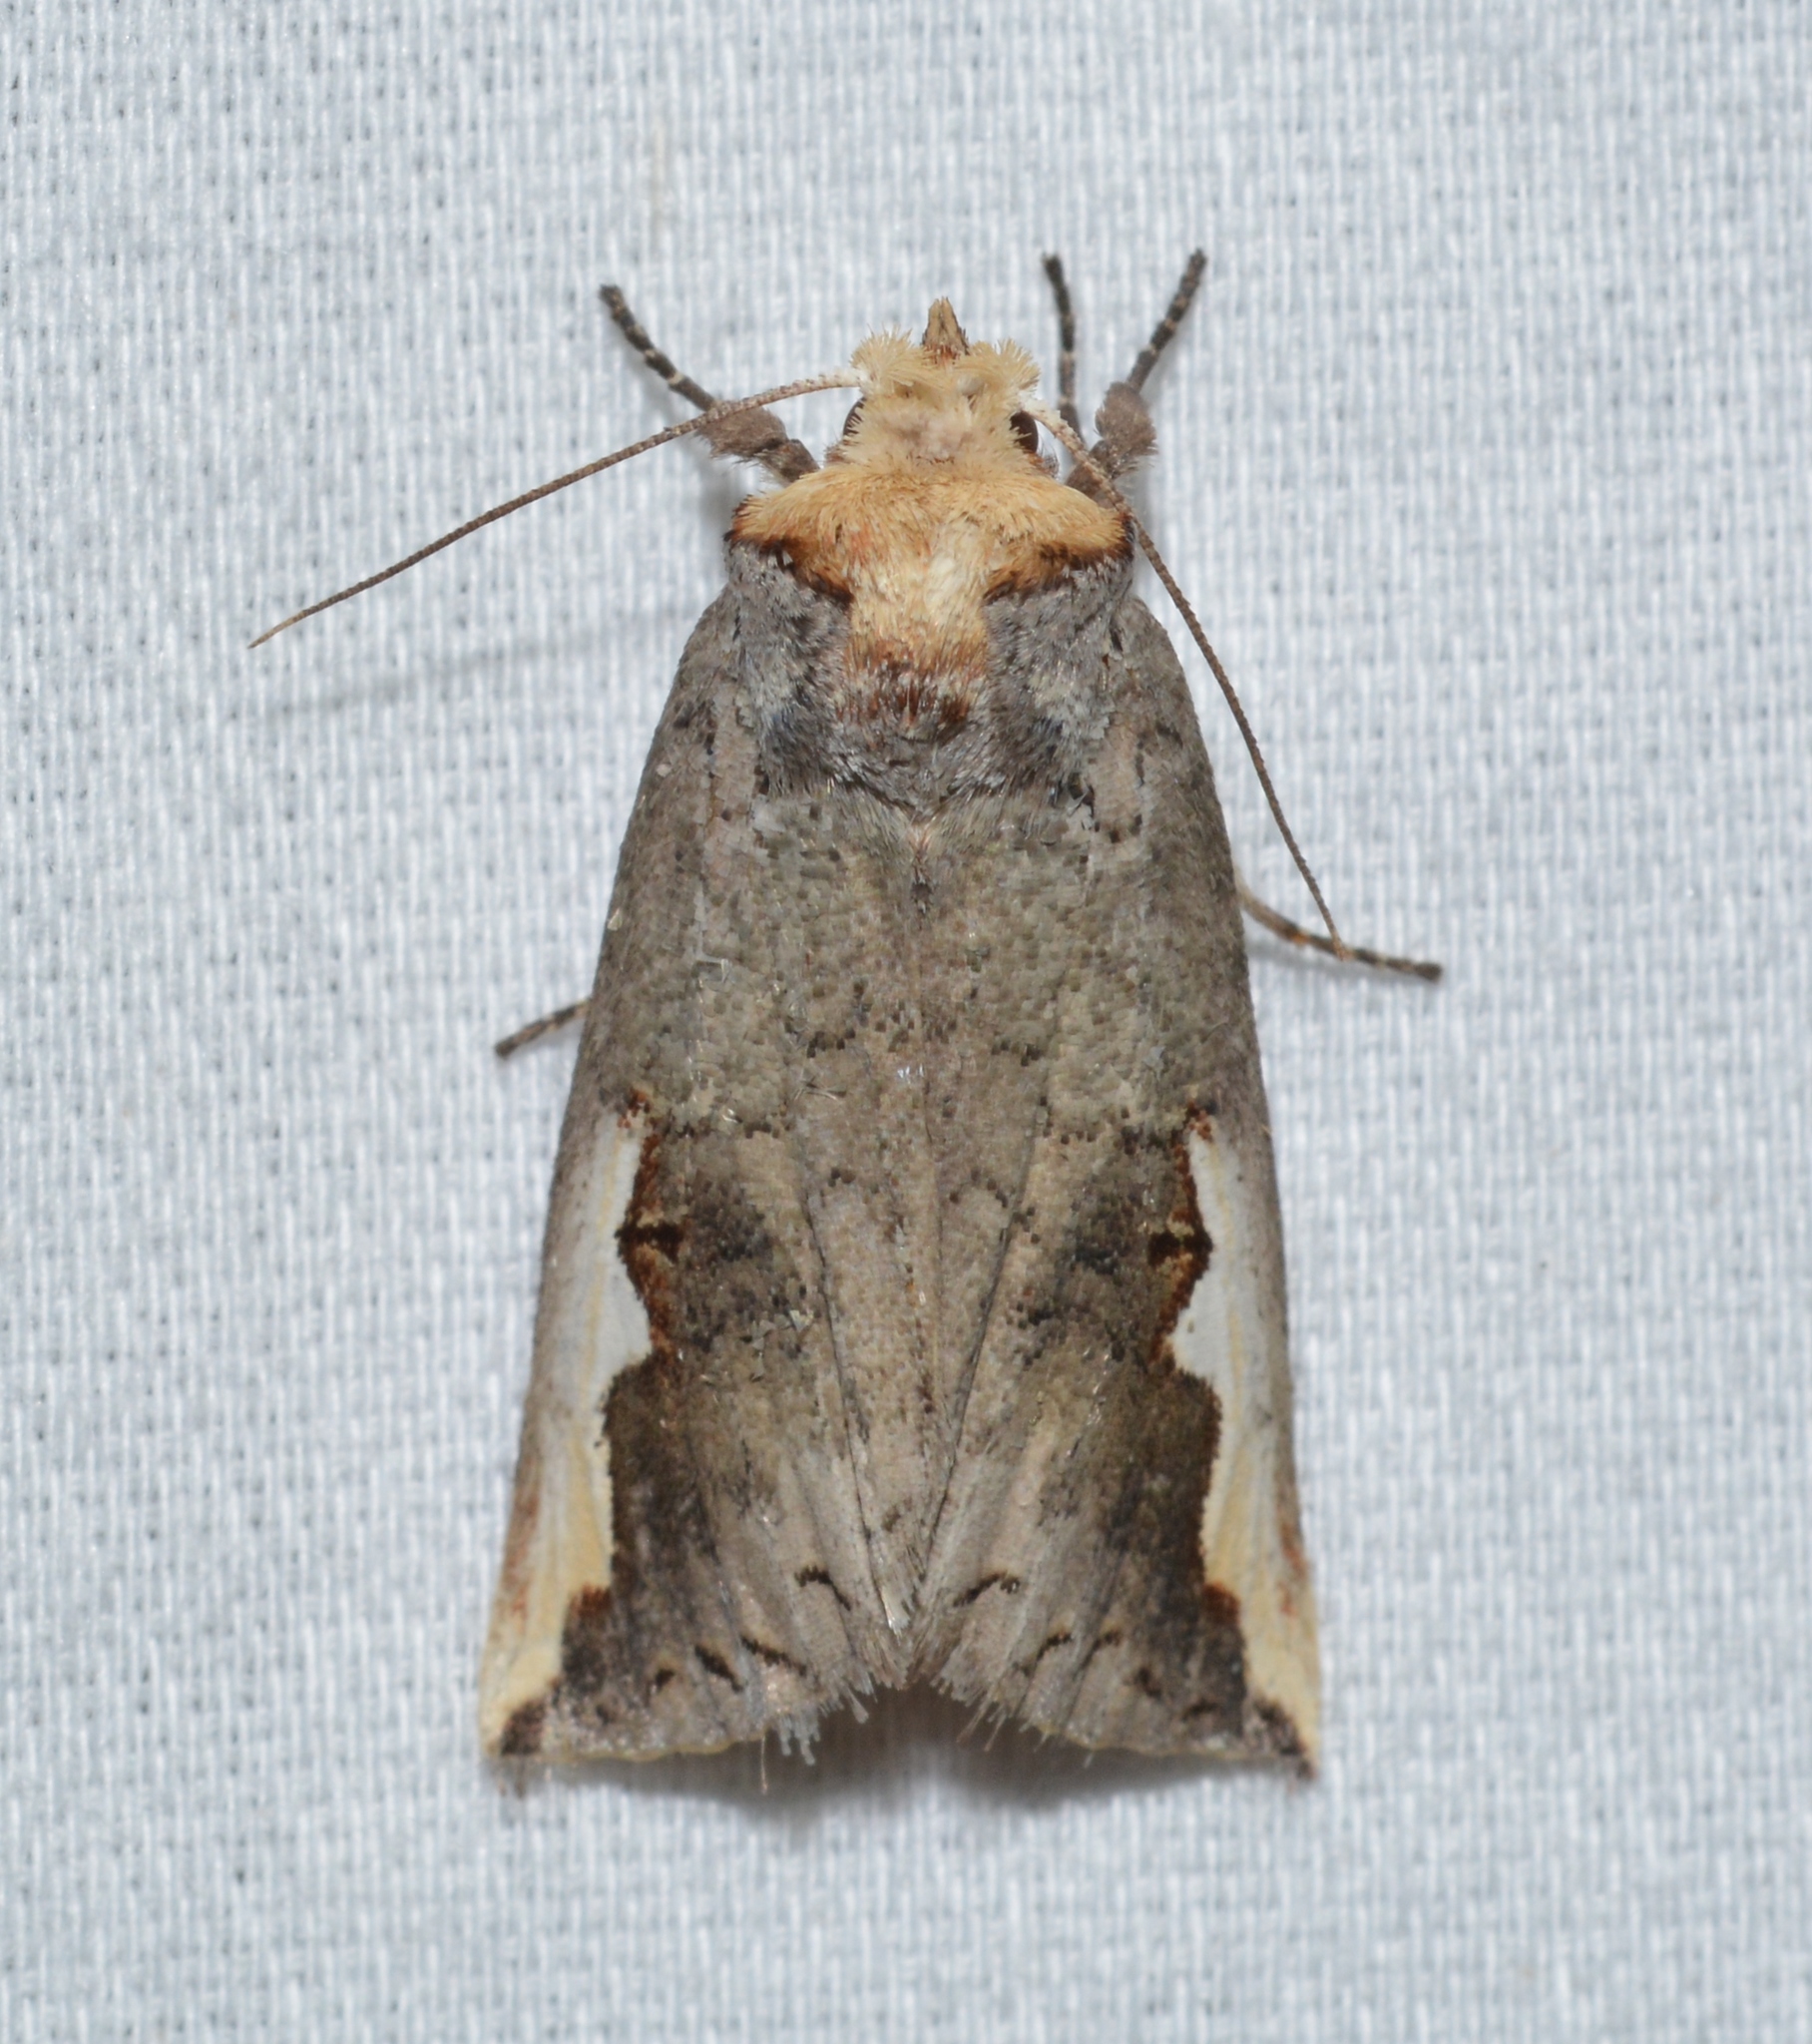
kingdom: Animalia
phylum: Arthropoda
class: Insecta
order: Lepidoptera
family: Notodontidae
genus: Symmerista
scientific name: Symmerista
